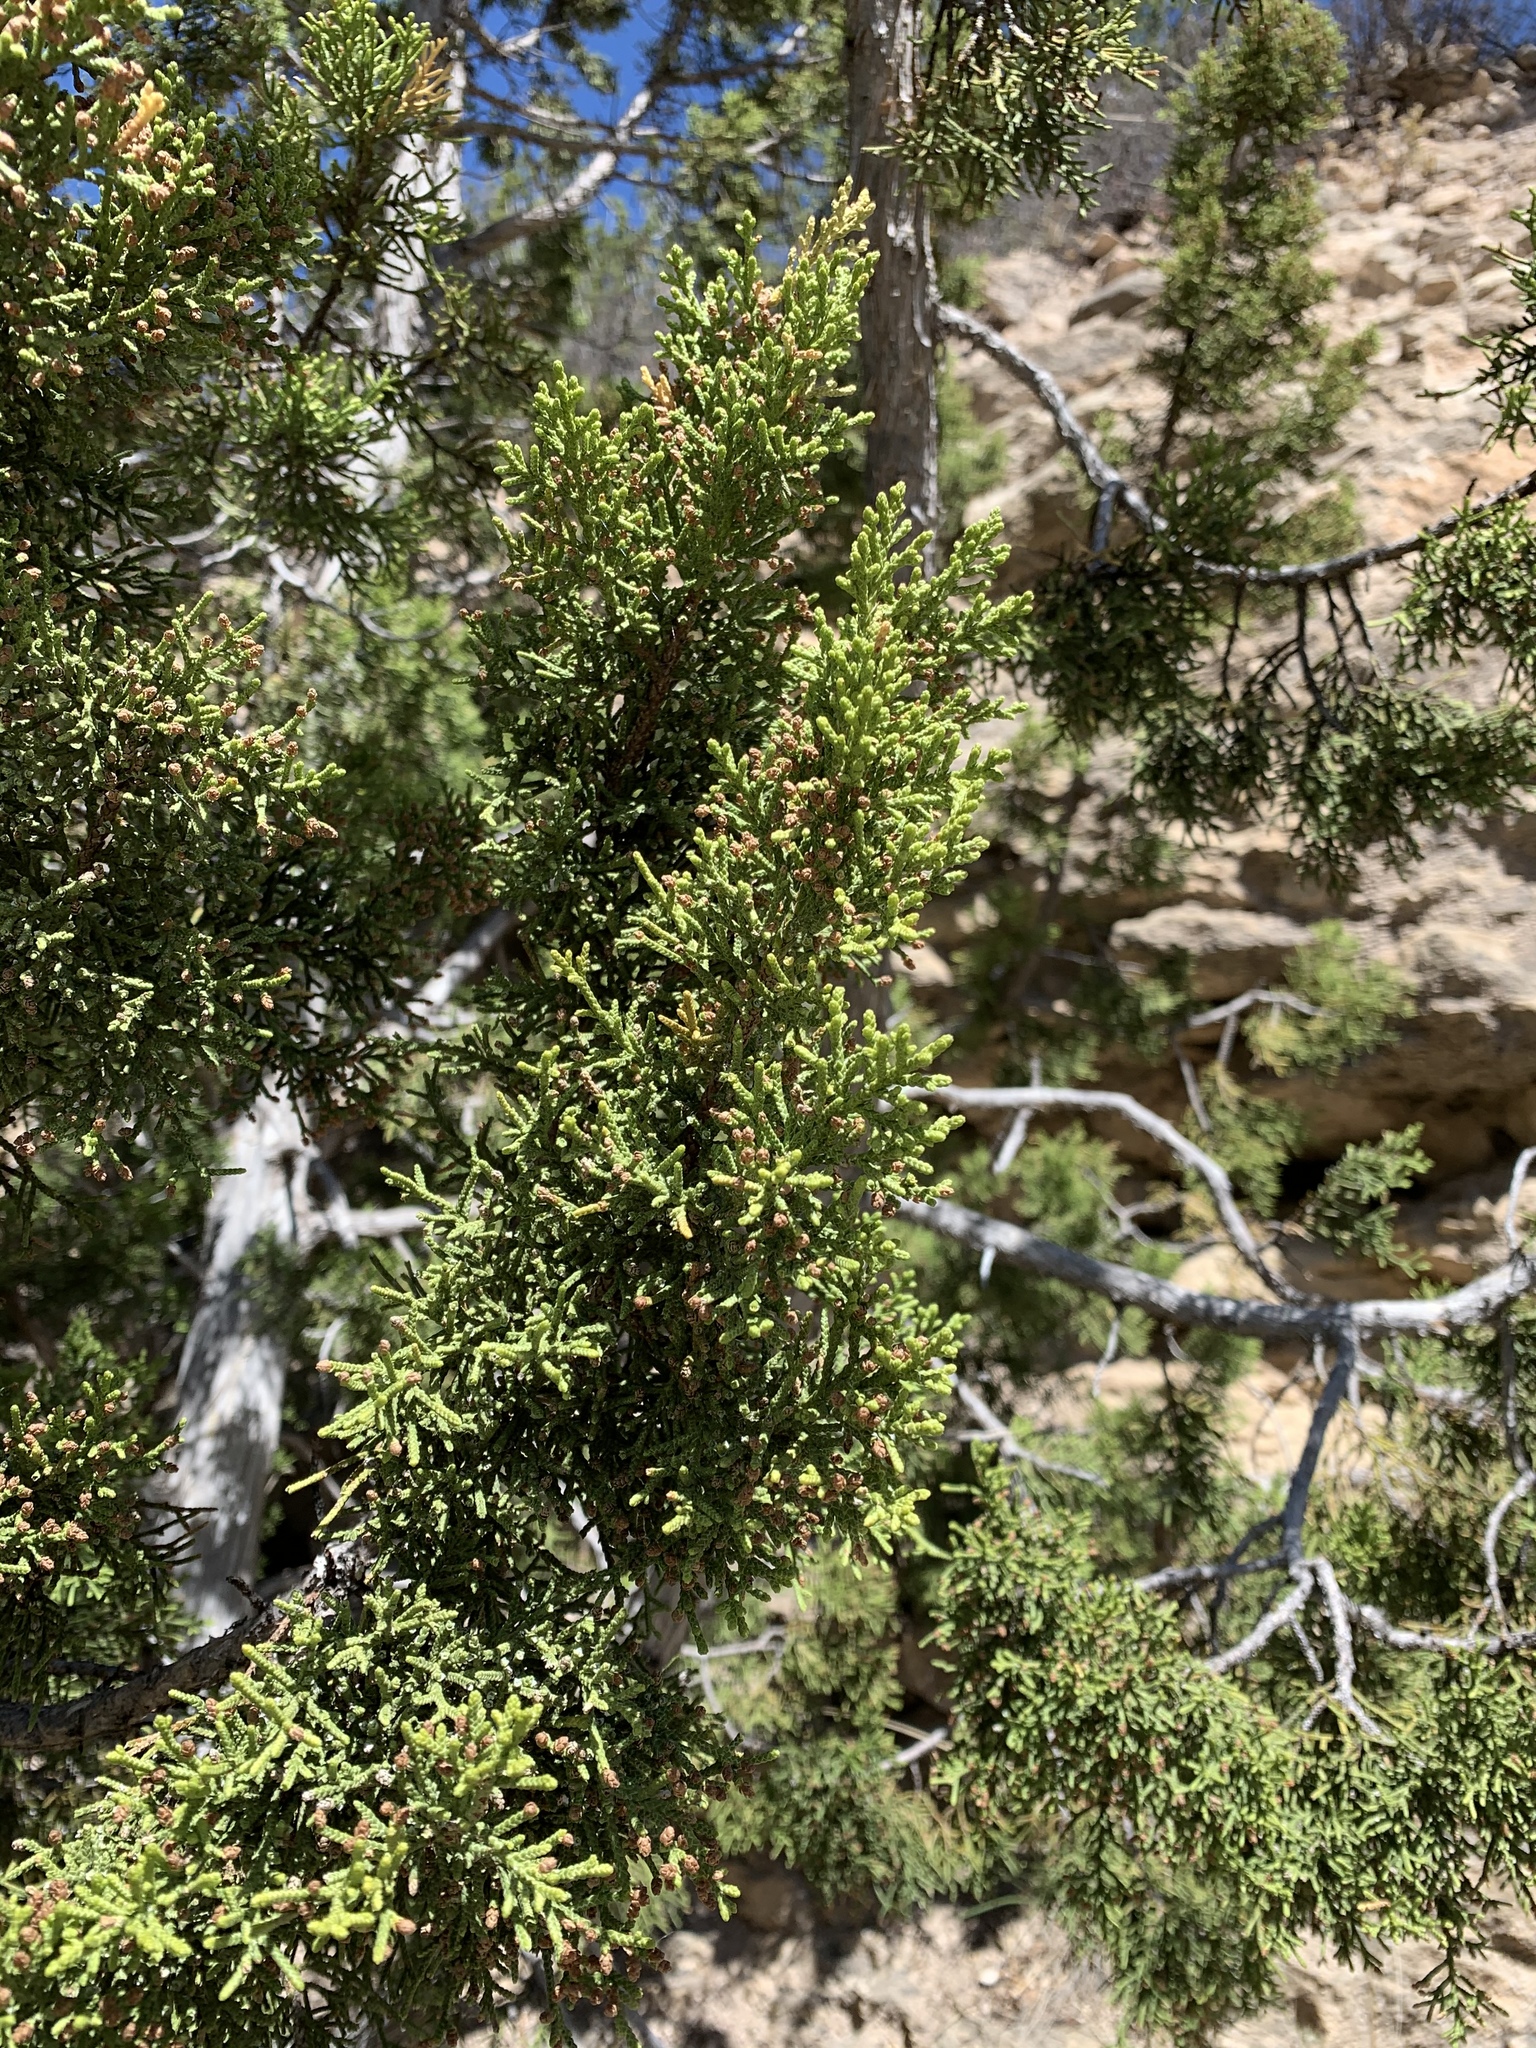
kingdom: Plantae
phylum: Tracheophyta
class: Pinopsida
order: Pinales
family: Cupressaceae
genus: Juniperus
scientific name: Juniperus monosperma
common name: One-seed juniper
